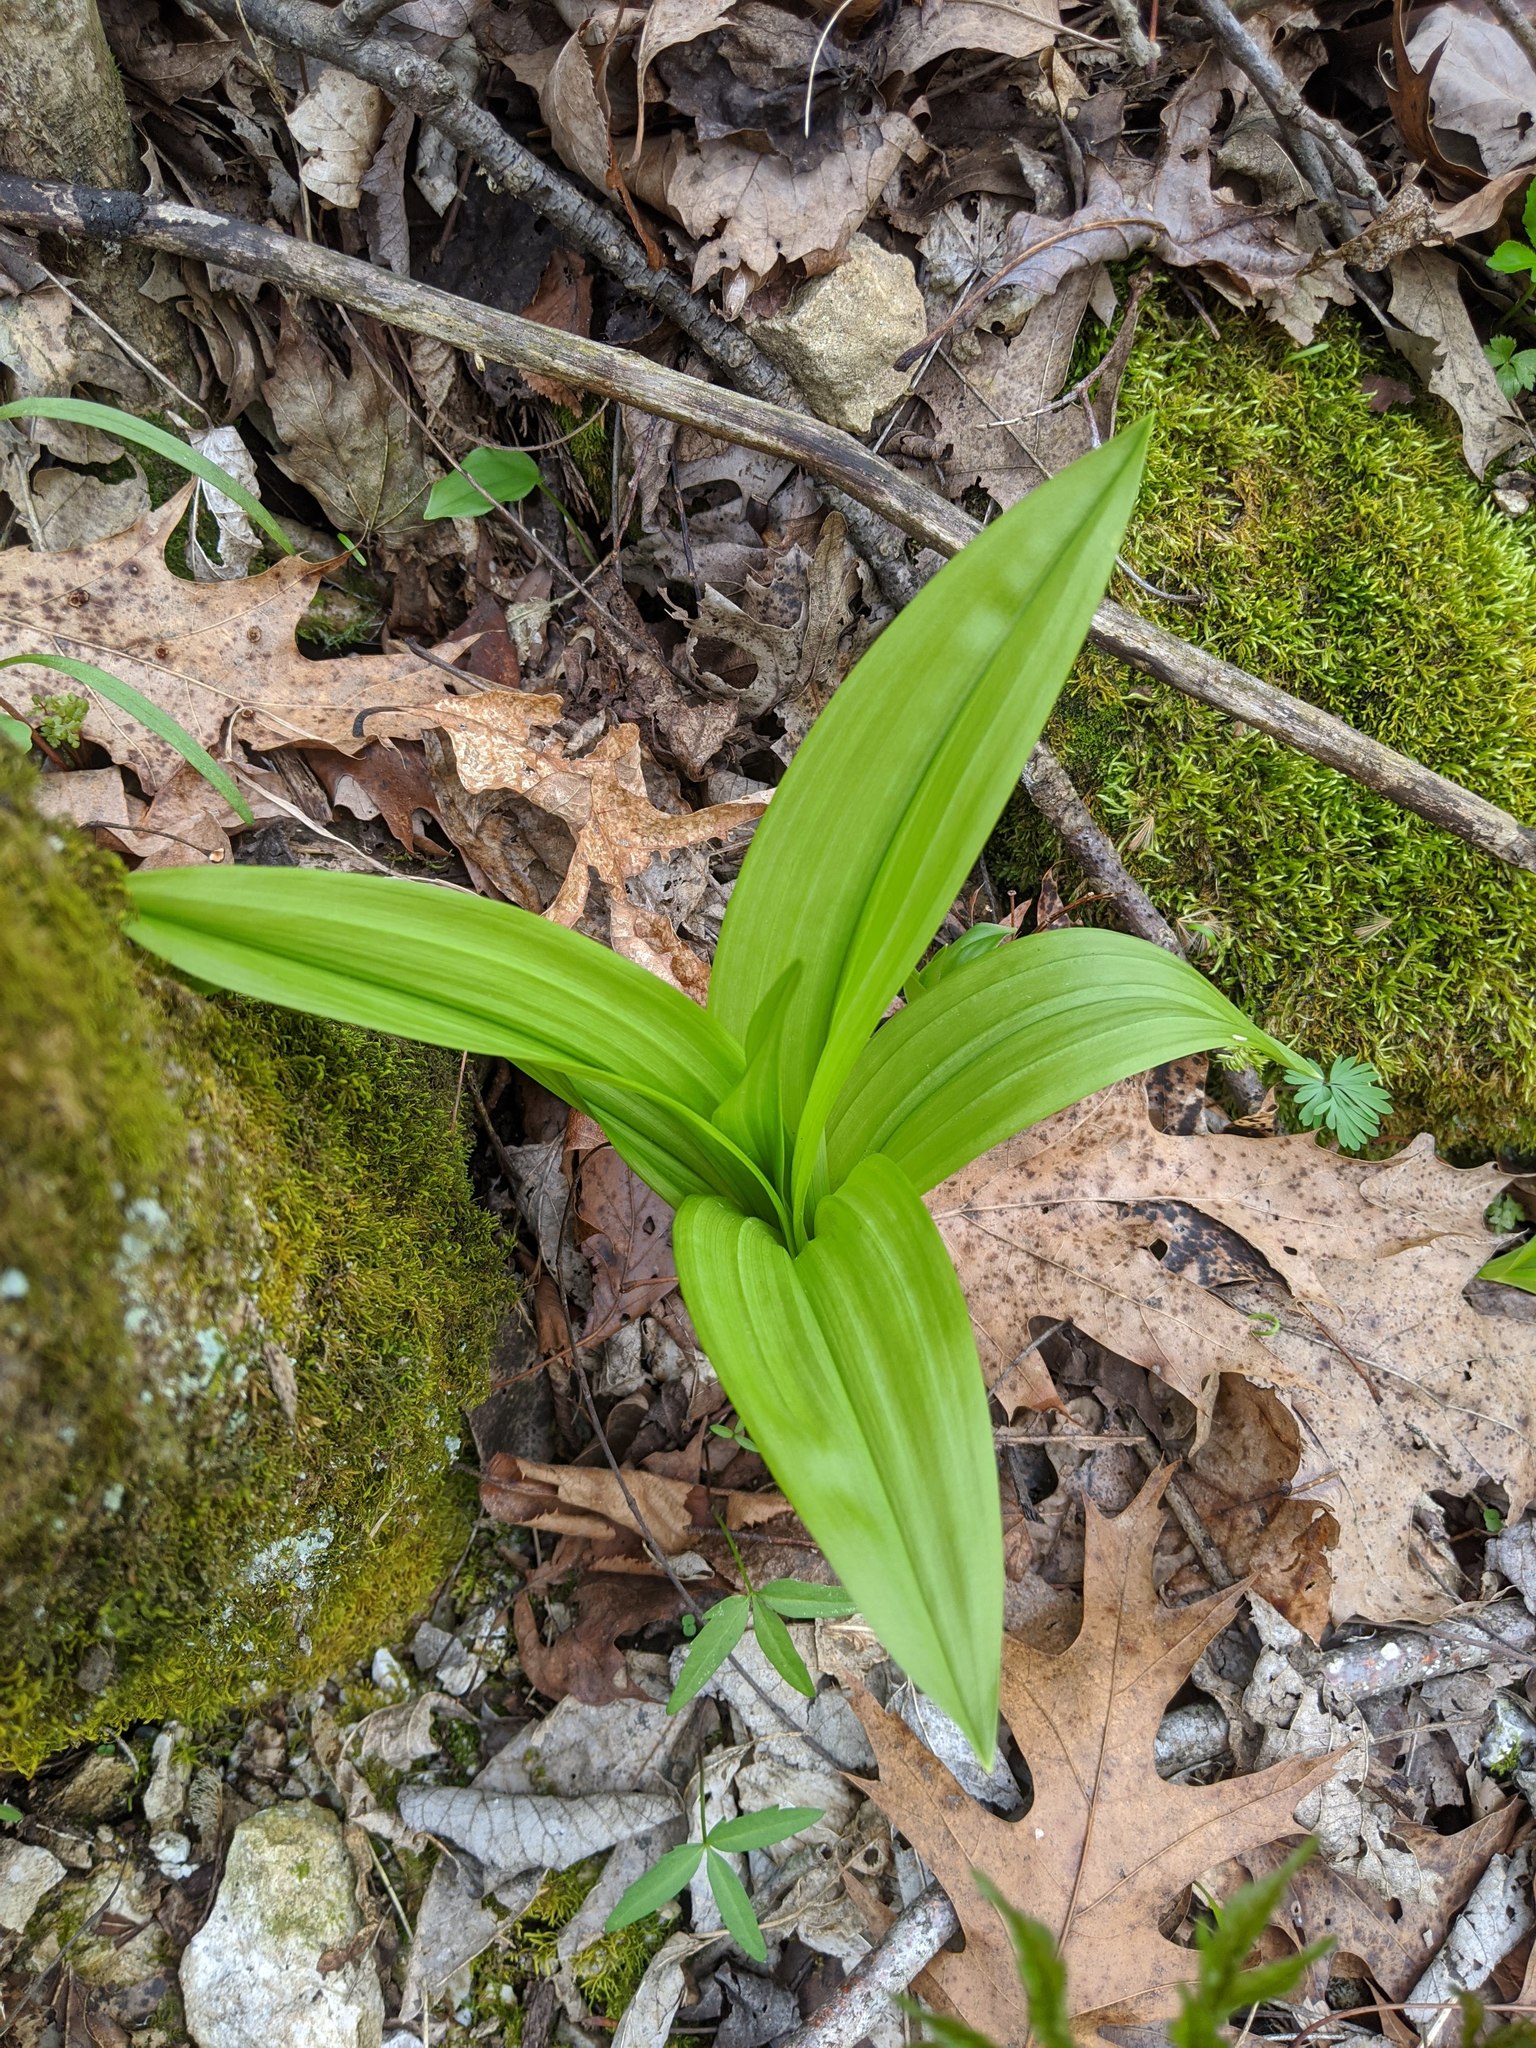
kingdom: Plantae
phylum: Tracheophyta
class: Liliopsida
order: Liliales
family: Melanthiaceae
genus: Veratrum
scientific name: Veratrum woodii
